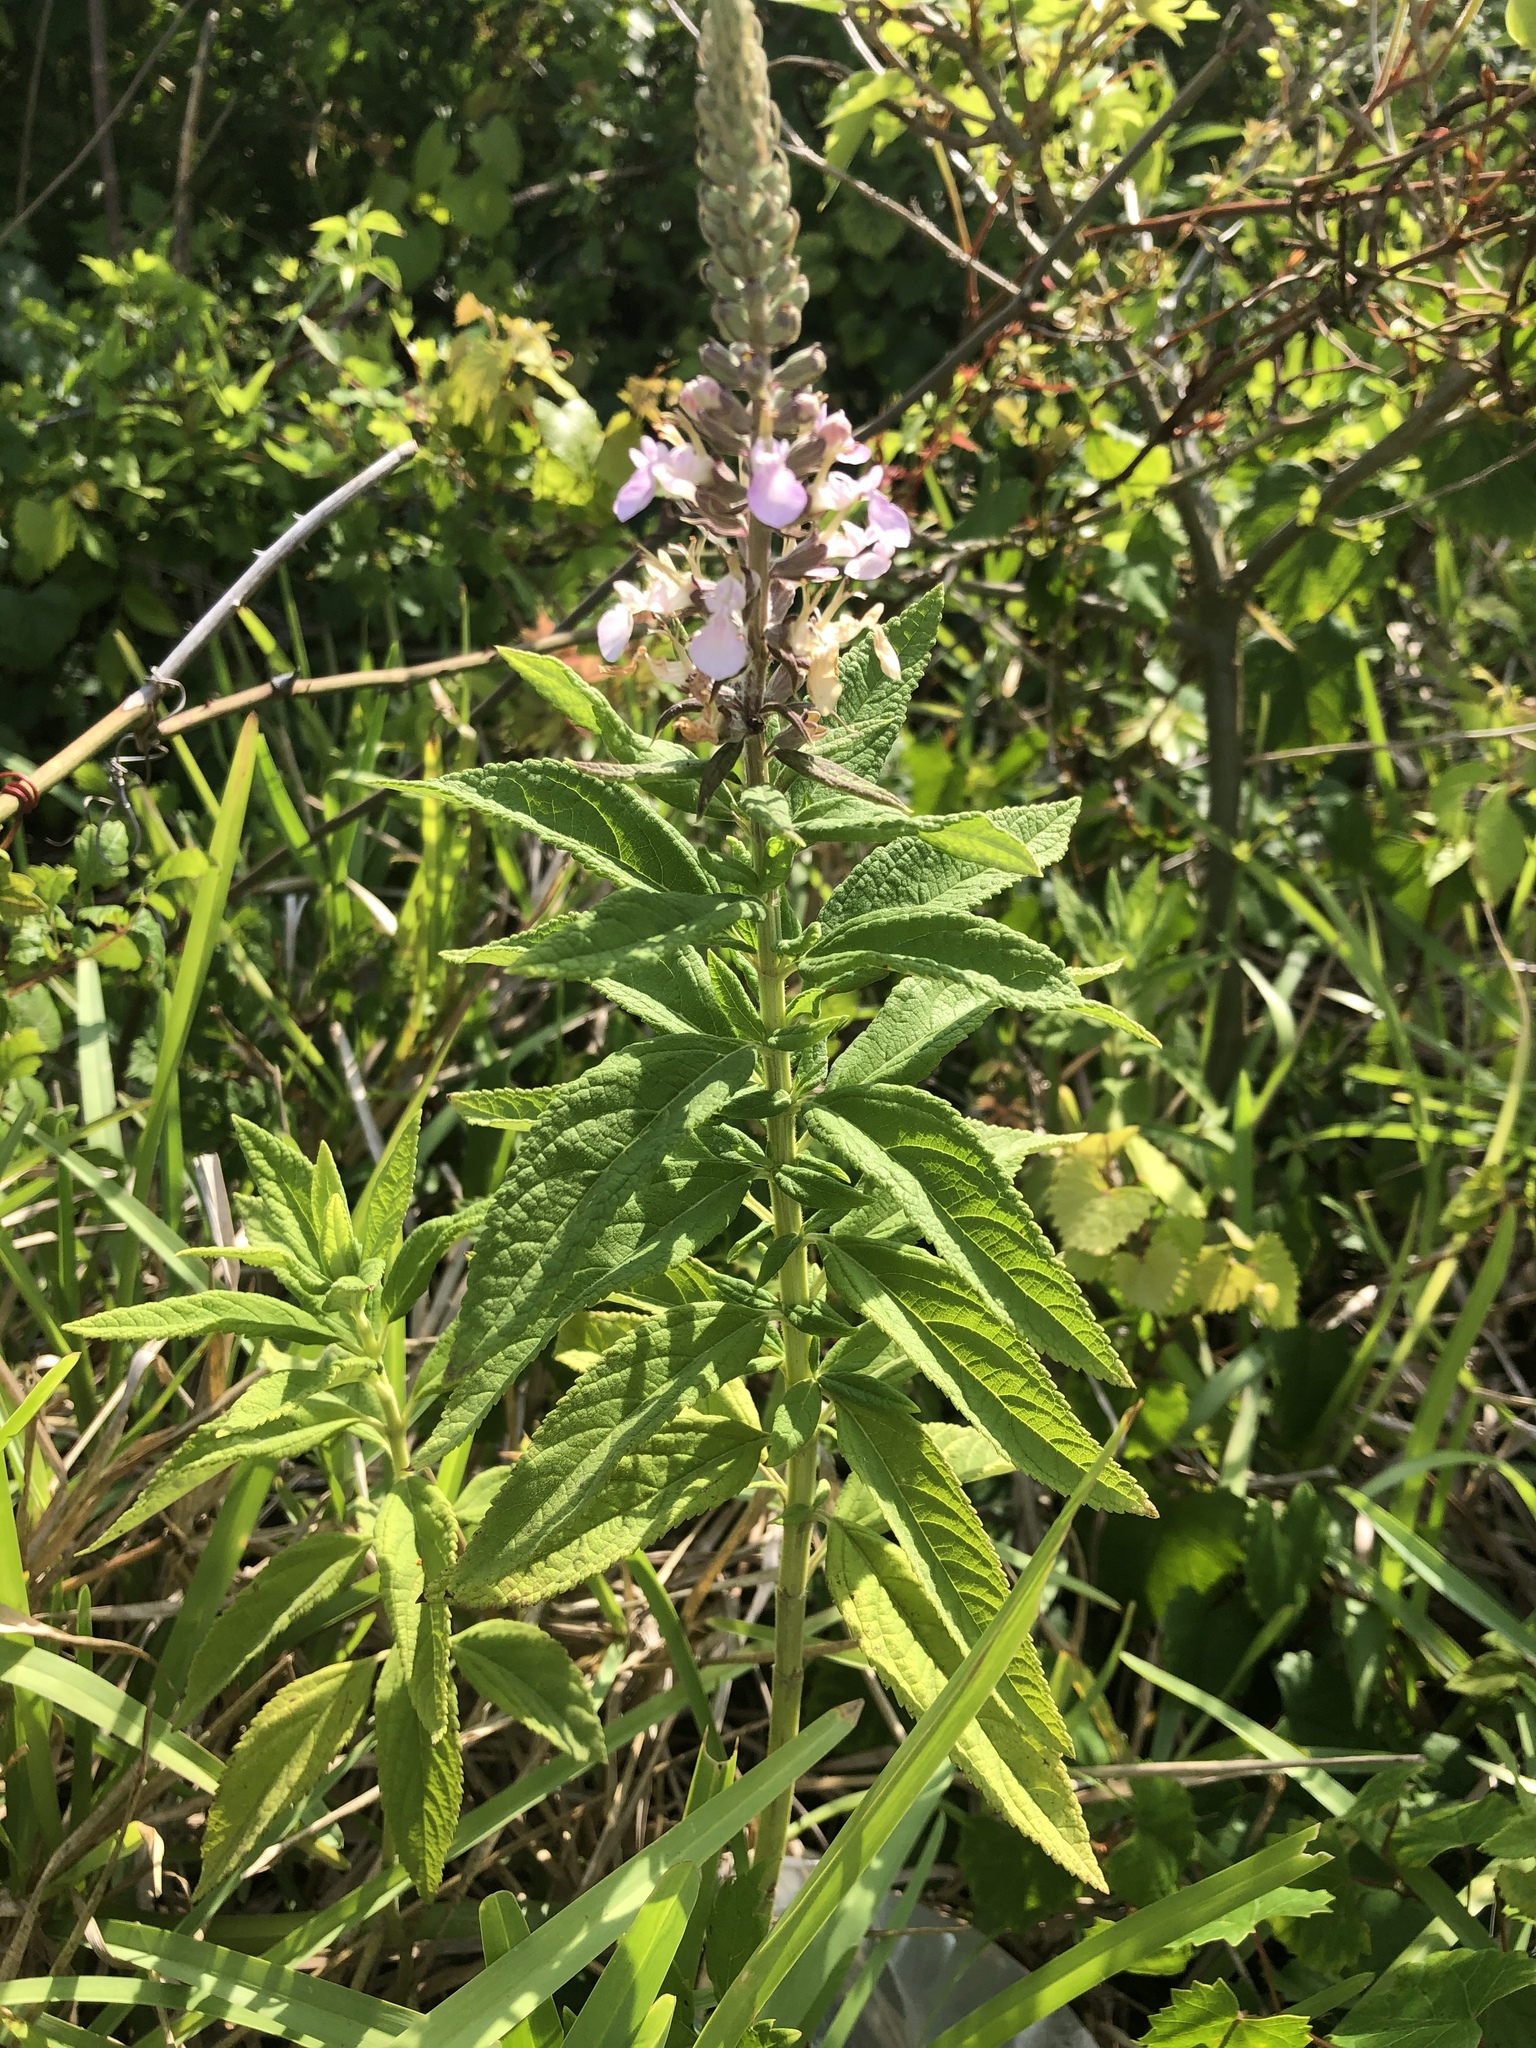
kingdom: Plantae
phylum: Tracheophyta
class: Magnoliopsida
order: Lamiales
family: Lamiaceae
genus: Teucrium
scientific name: Teucrium canadense
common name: American germander
